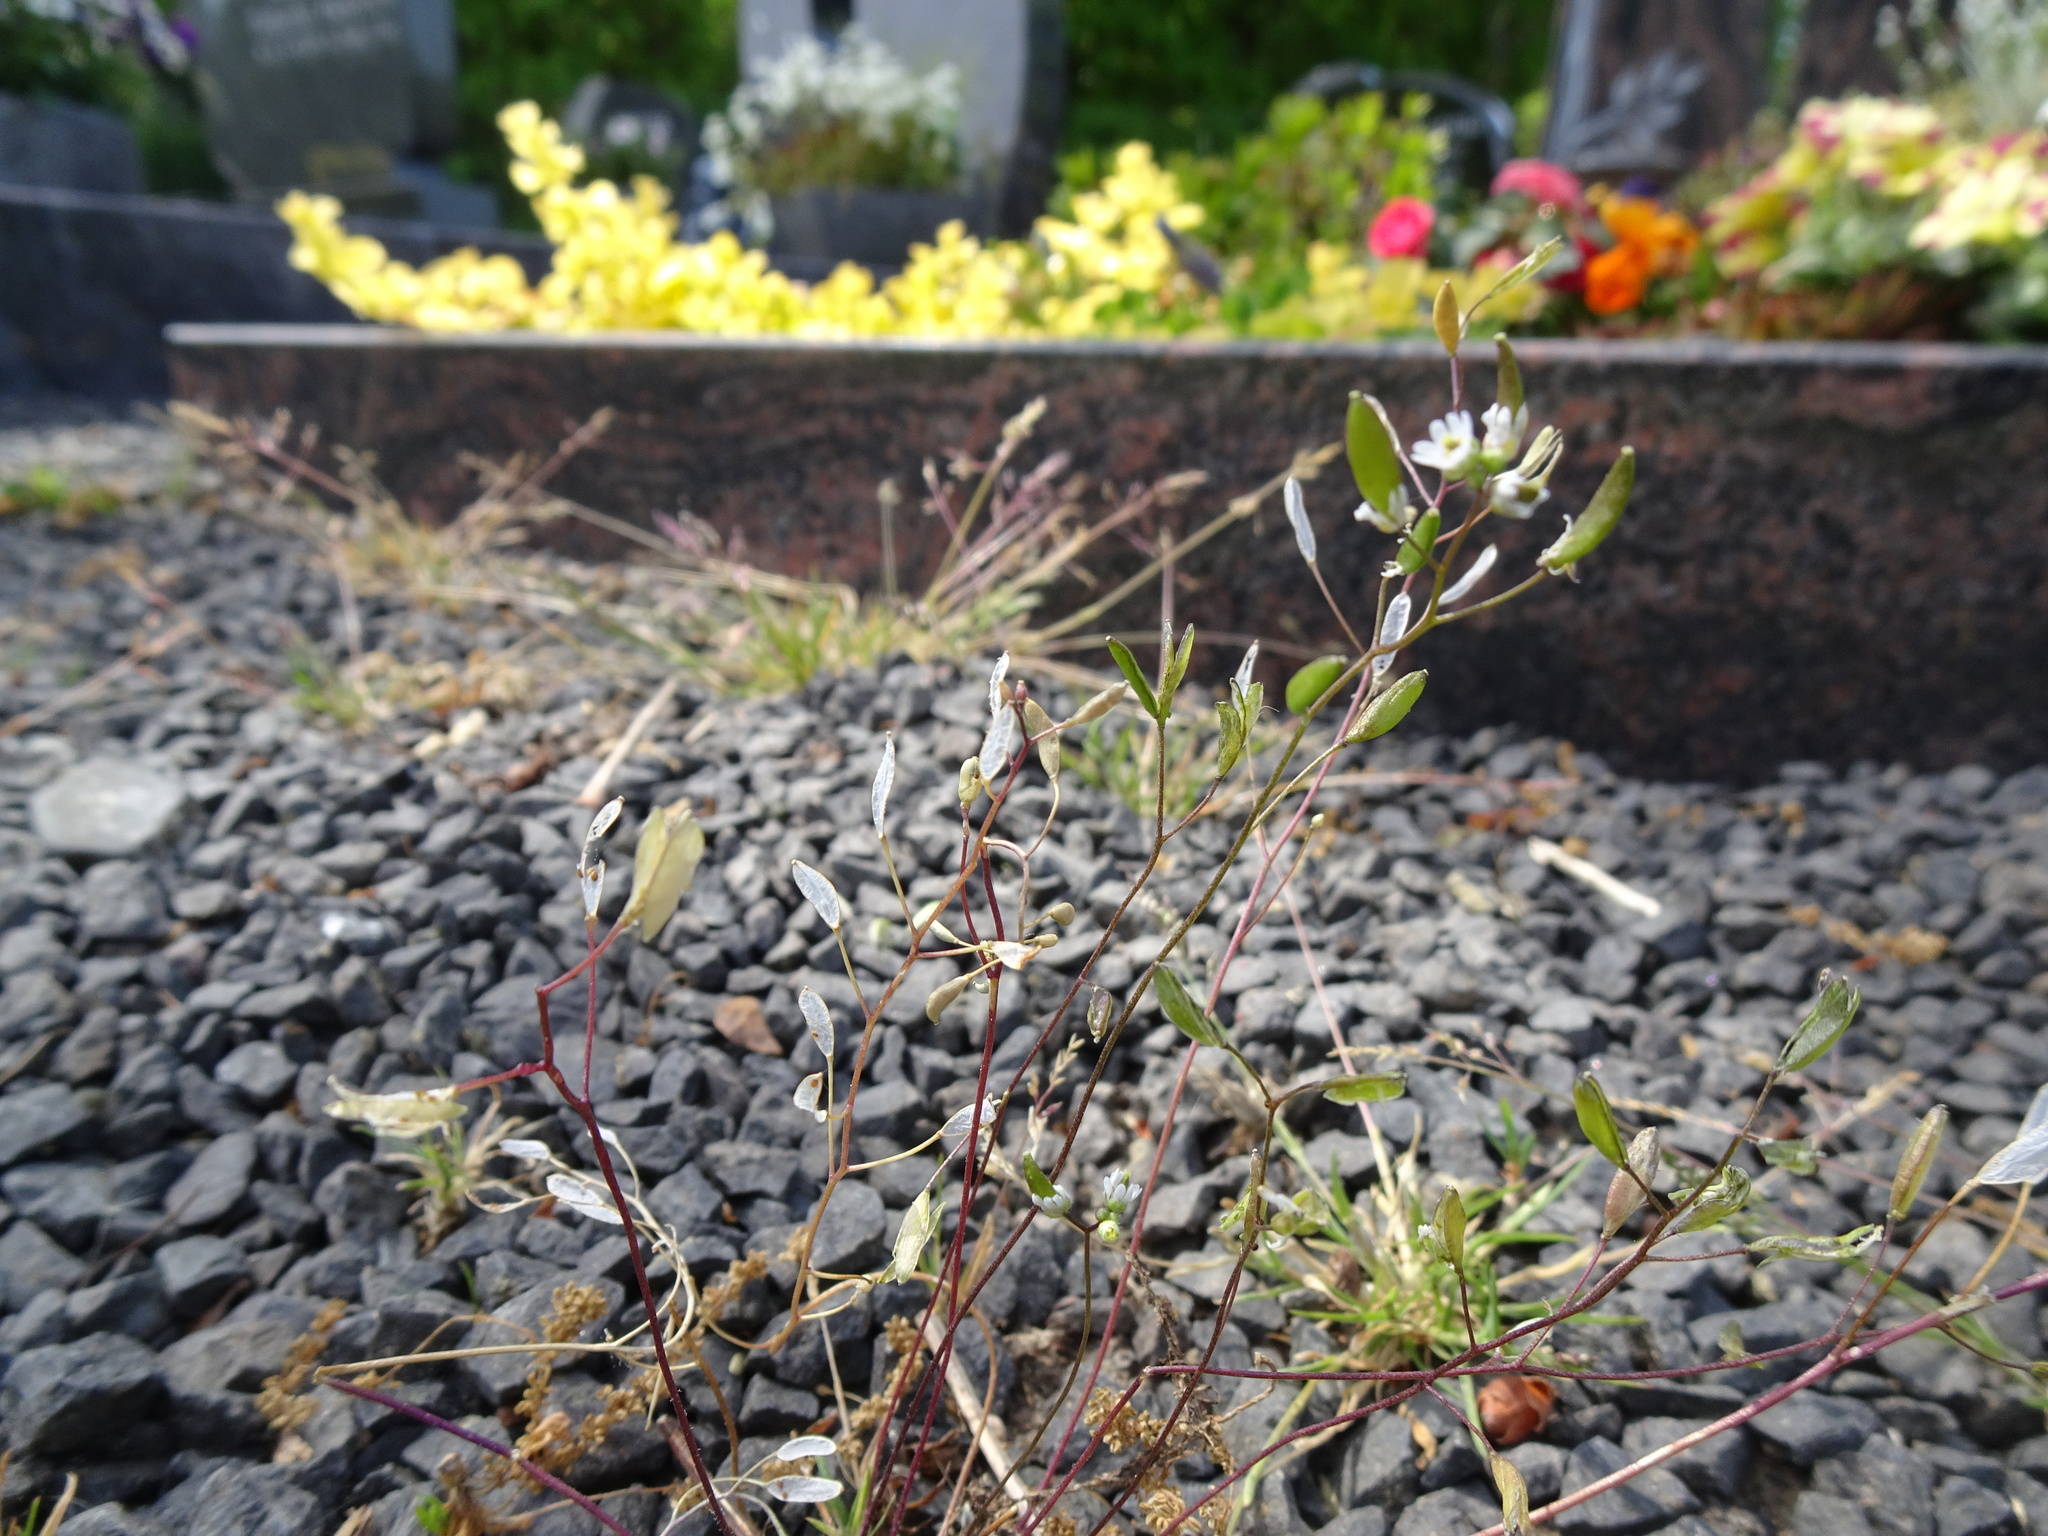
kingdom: Plantae
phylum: Tracheophyta
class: Magnoliopsida
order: Brassicales
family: Brassicaceae
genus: Draba
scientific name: Draba verna
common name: Spring draba
